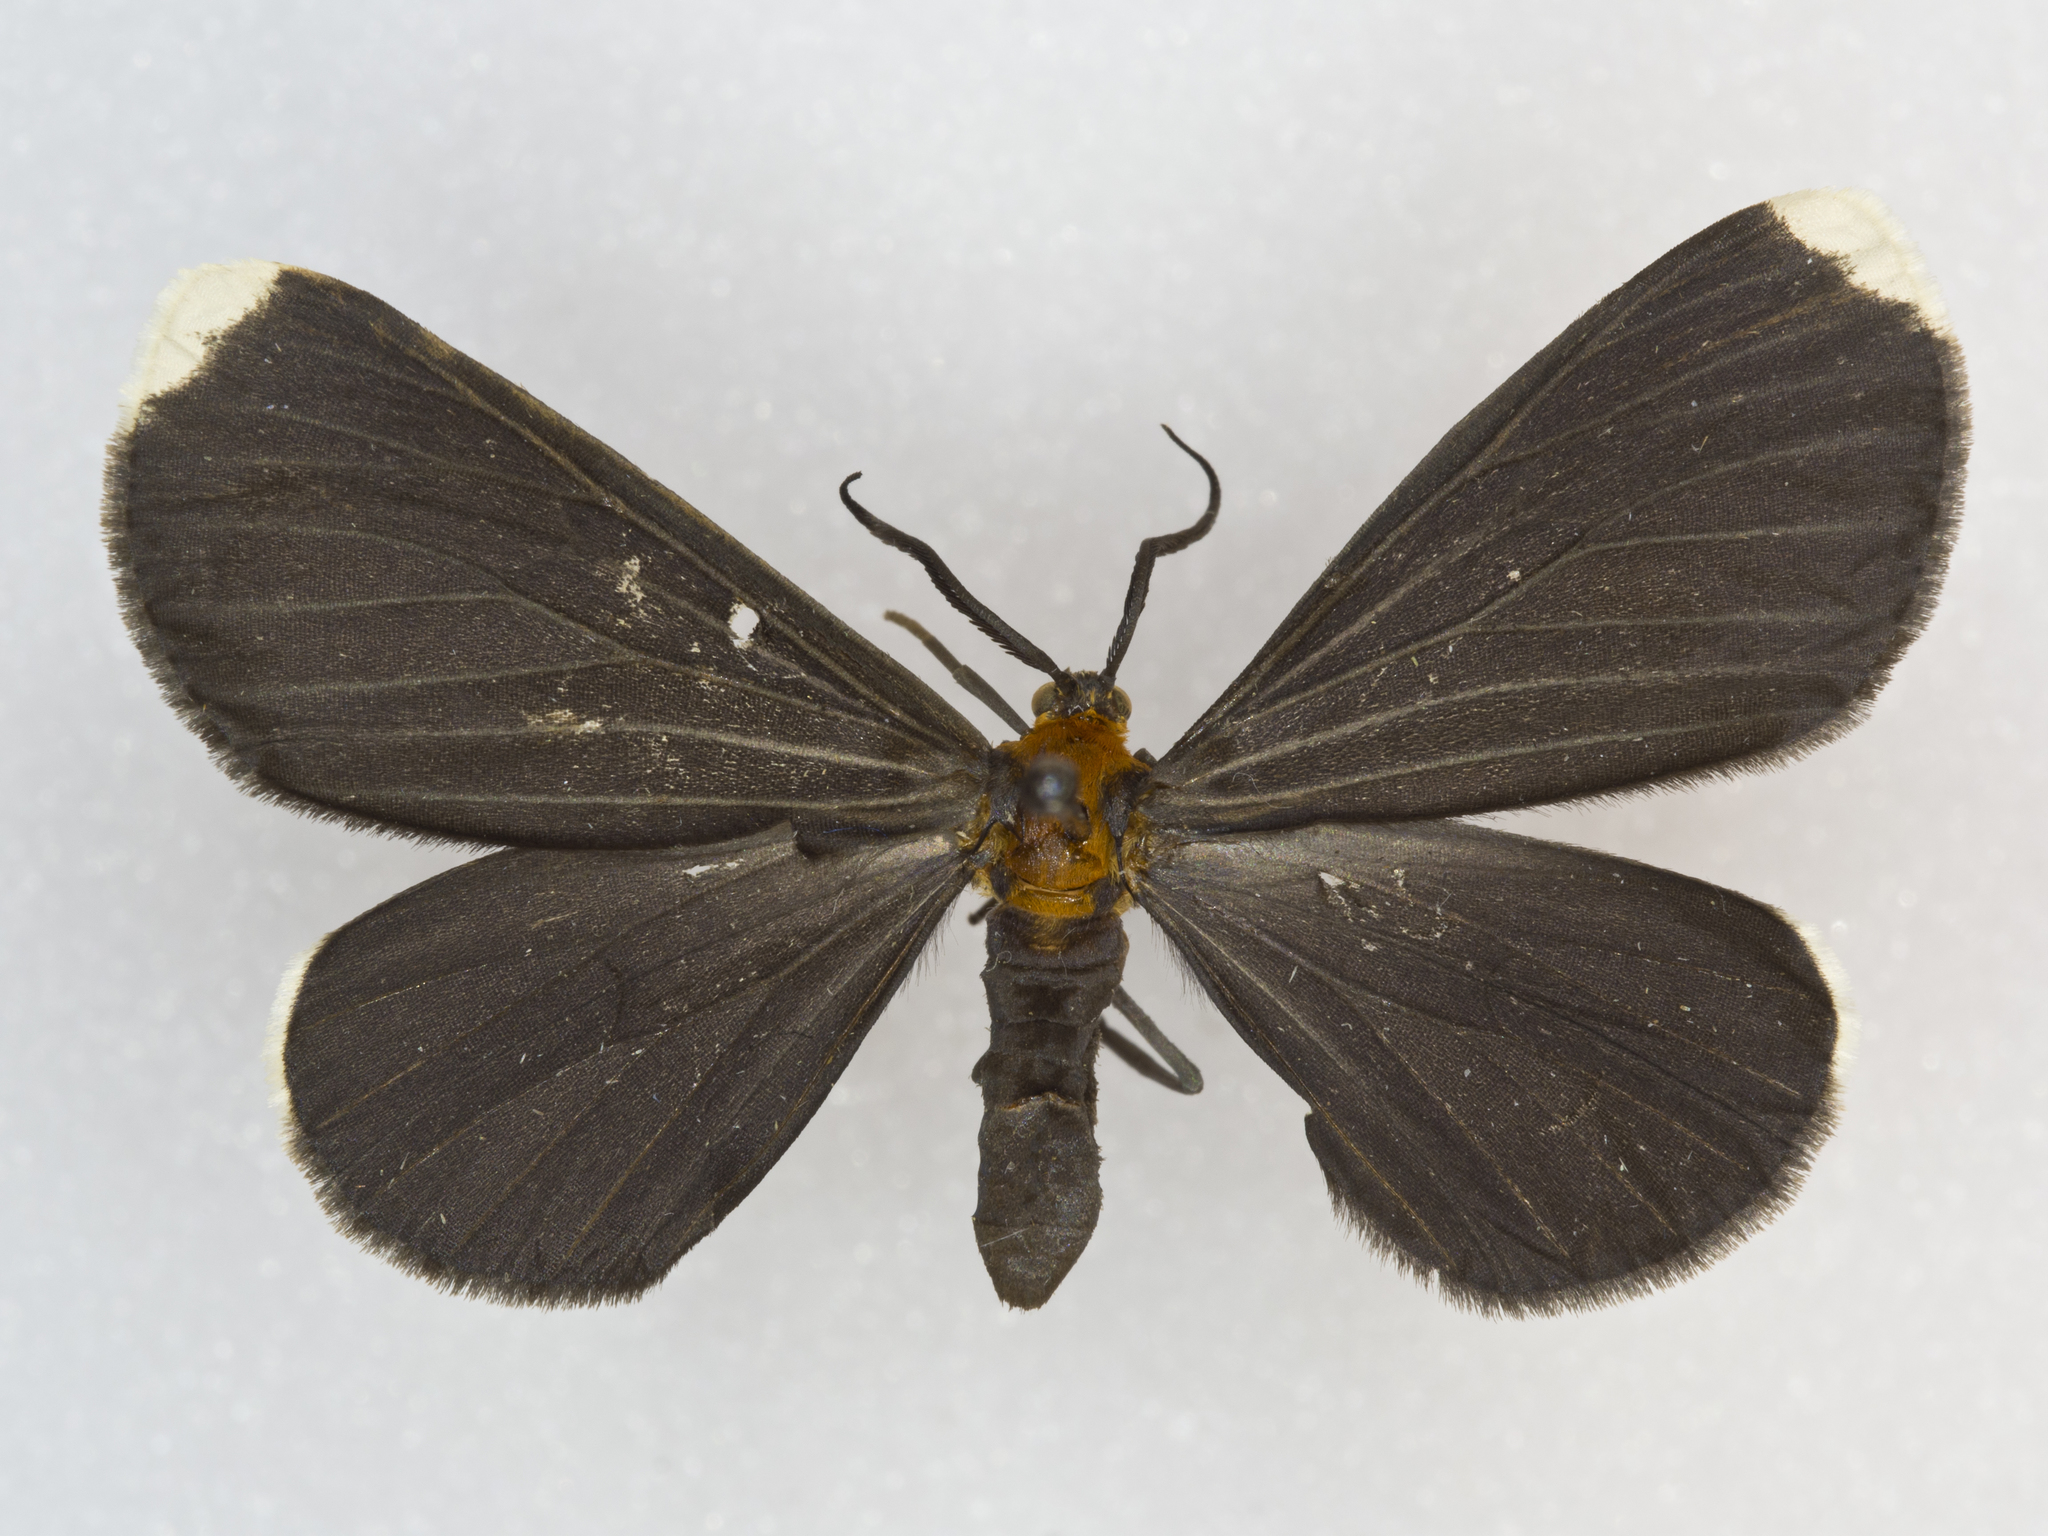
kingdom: Animalia
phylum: Arthropoda
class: Insecta
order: Lepidoptera
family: Geometridae
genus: Melanchroia
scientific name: Melanchroia chephise
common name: White-tipped black
